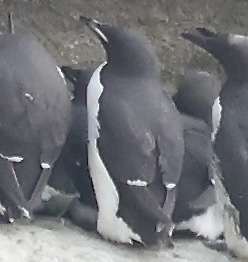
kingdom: Animalia
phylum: Chordata
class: Aves
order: Charadriiformes
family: Alcidae
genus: Uria
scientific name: Uria lomvia
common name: Thick-billed murre
